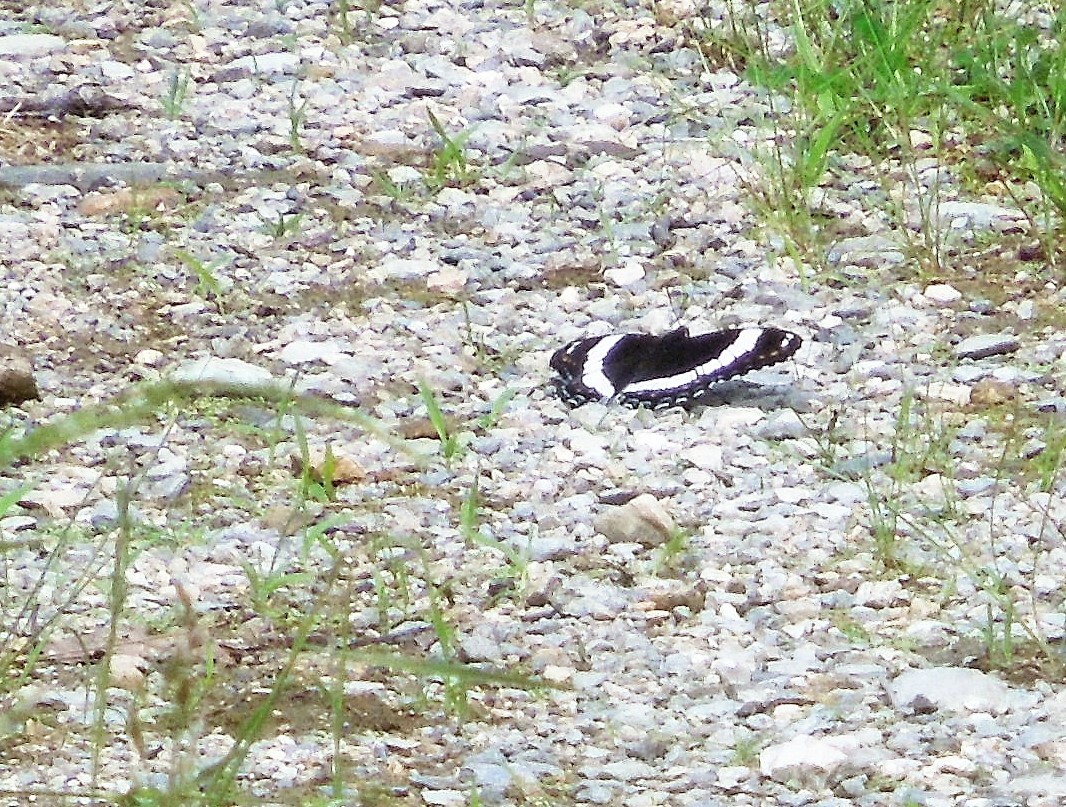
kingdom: Animalia
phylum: Arthropoda
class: Insecta
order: Lepidoptera
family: Nymphalidae
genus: Limenitis
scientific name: Limenitis arthemis
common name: Red-spotted admiral
